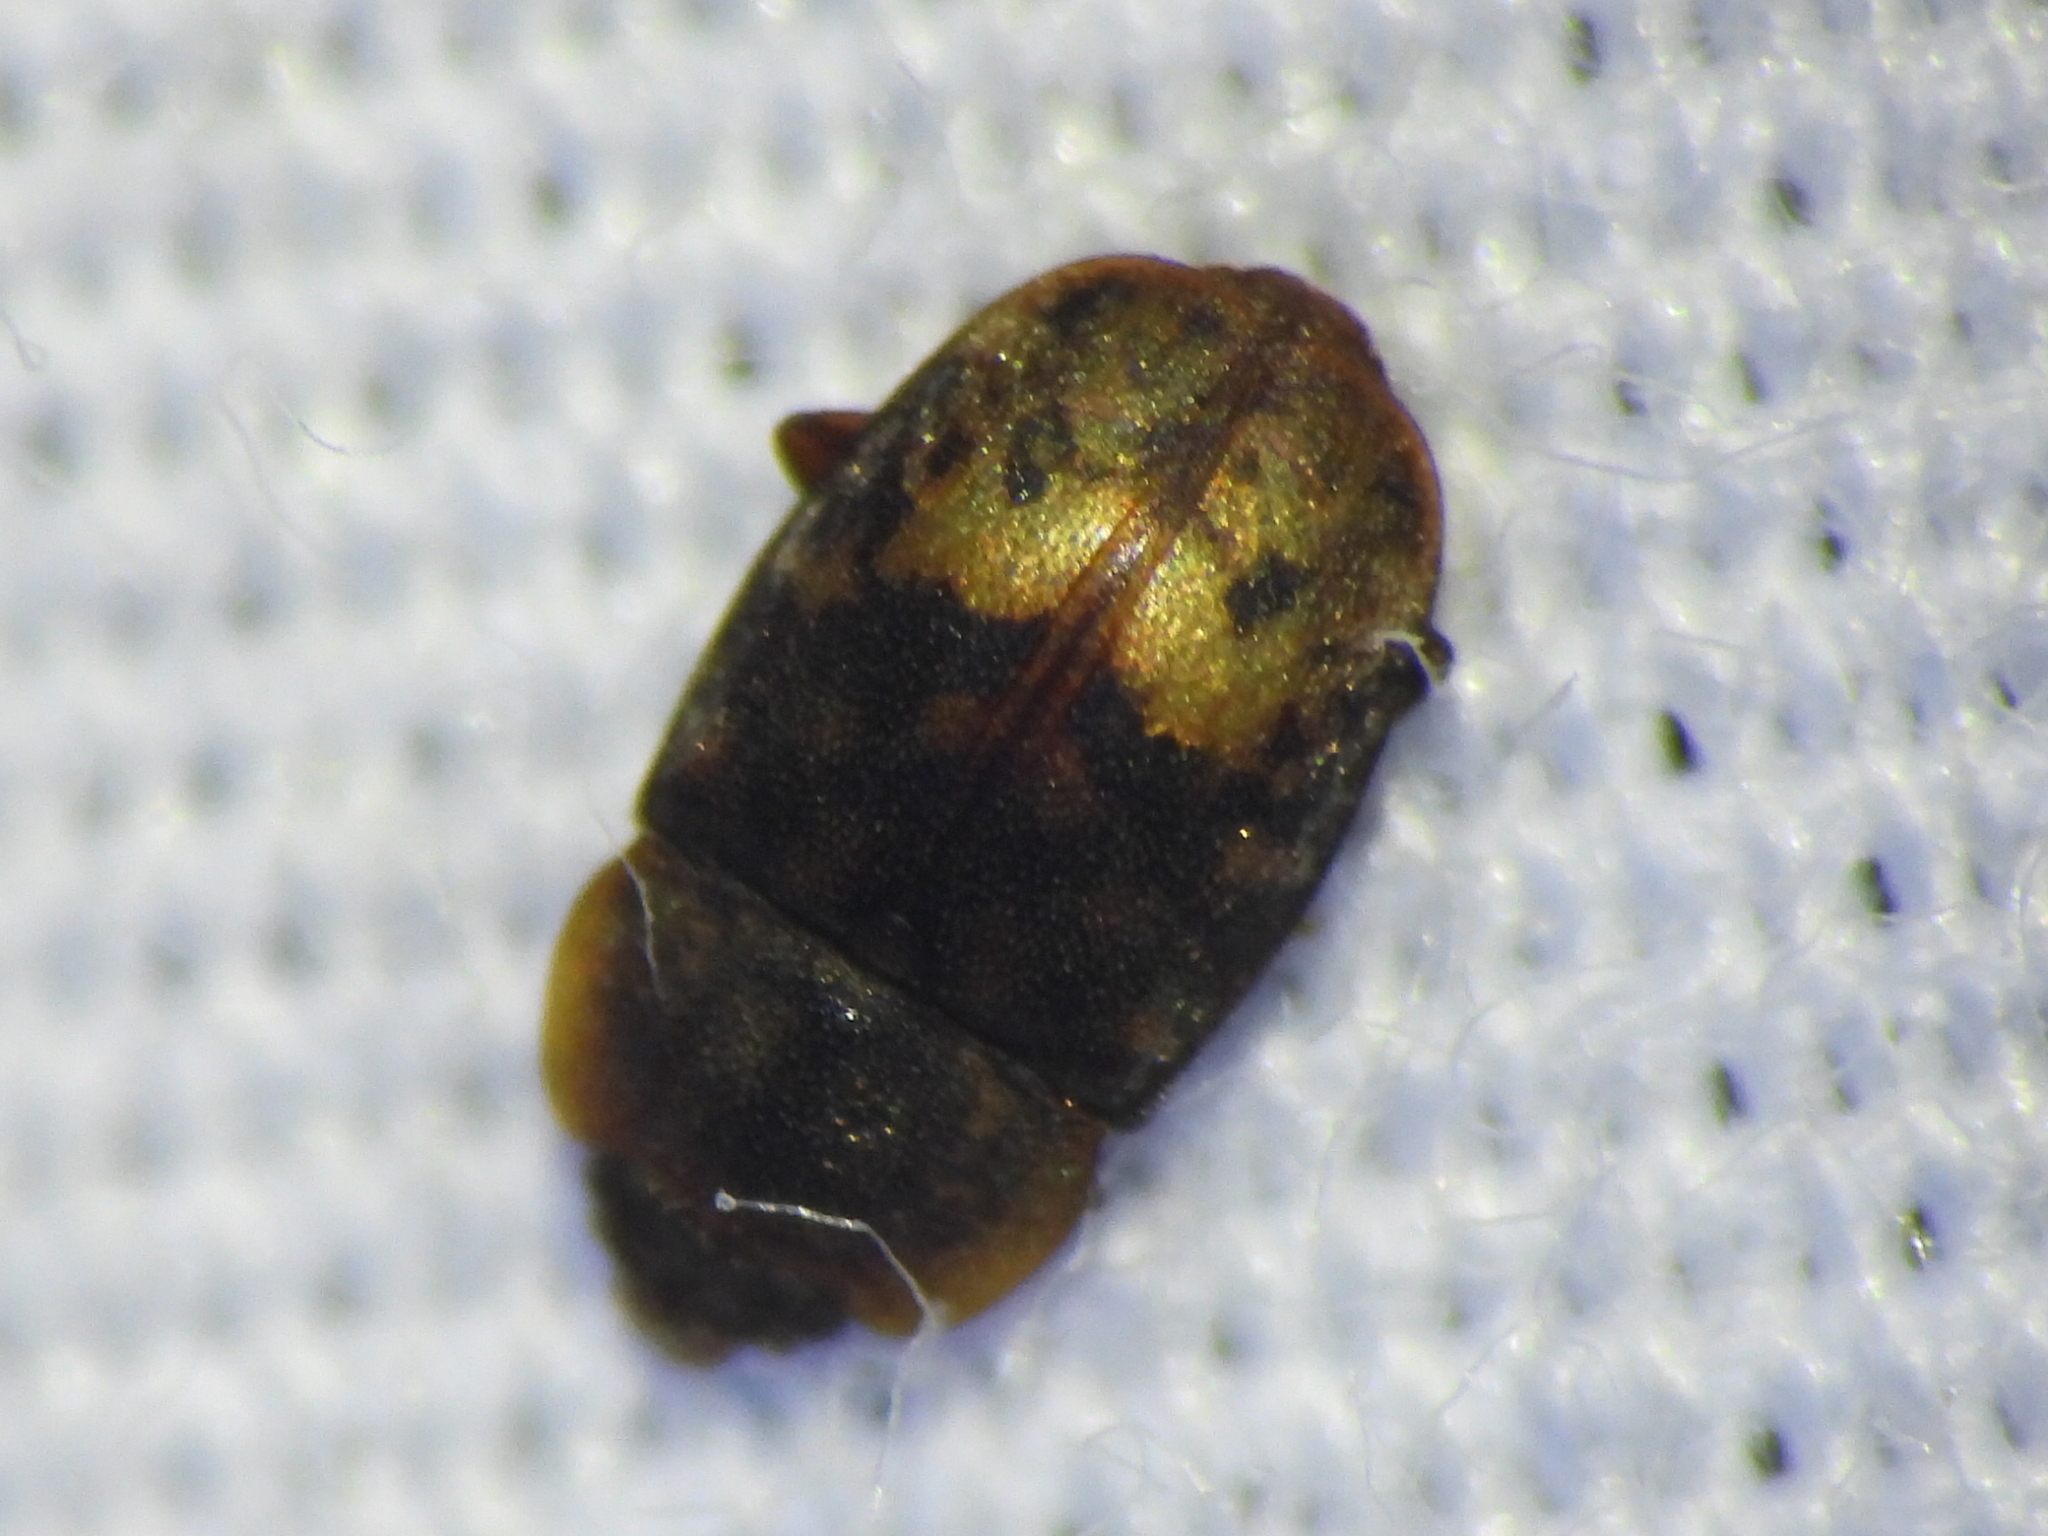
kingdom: Animalia
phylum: Arthropoda
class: Insecta
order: Coleoptera
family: Nitidulidae
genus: Omosita
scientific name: Omosita nearctica
